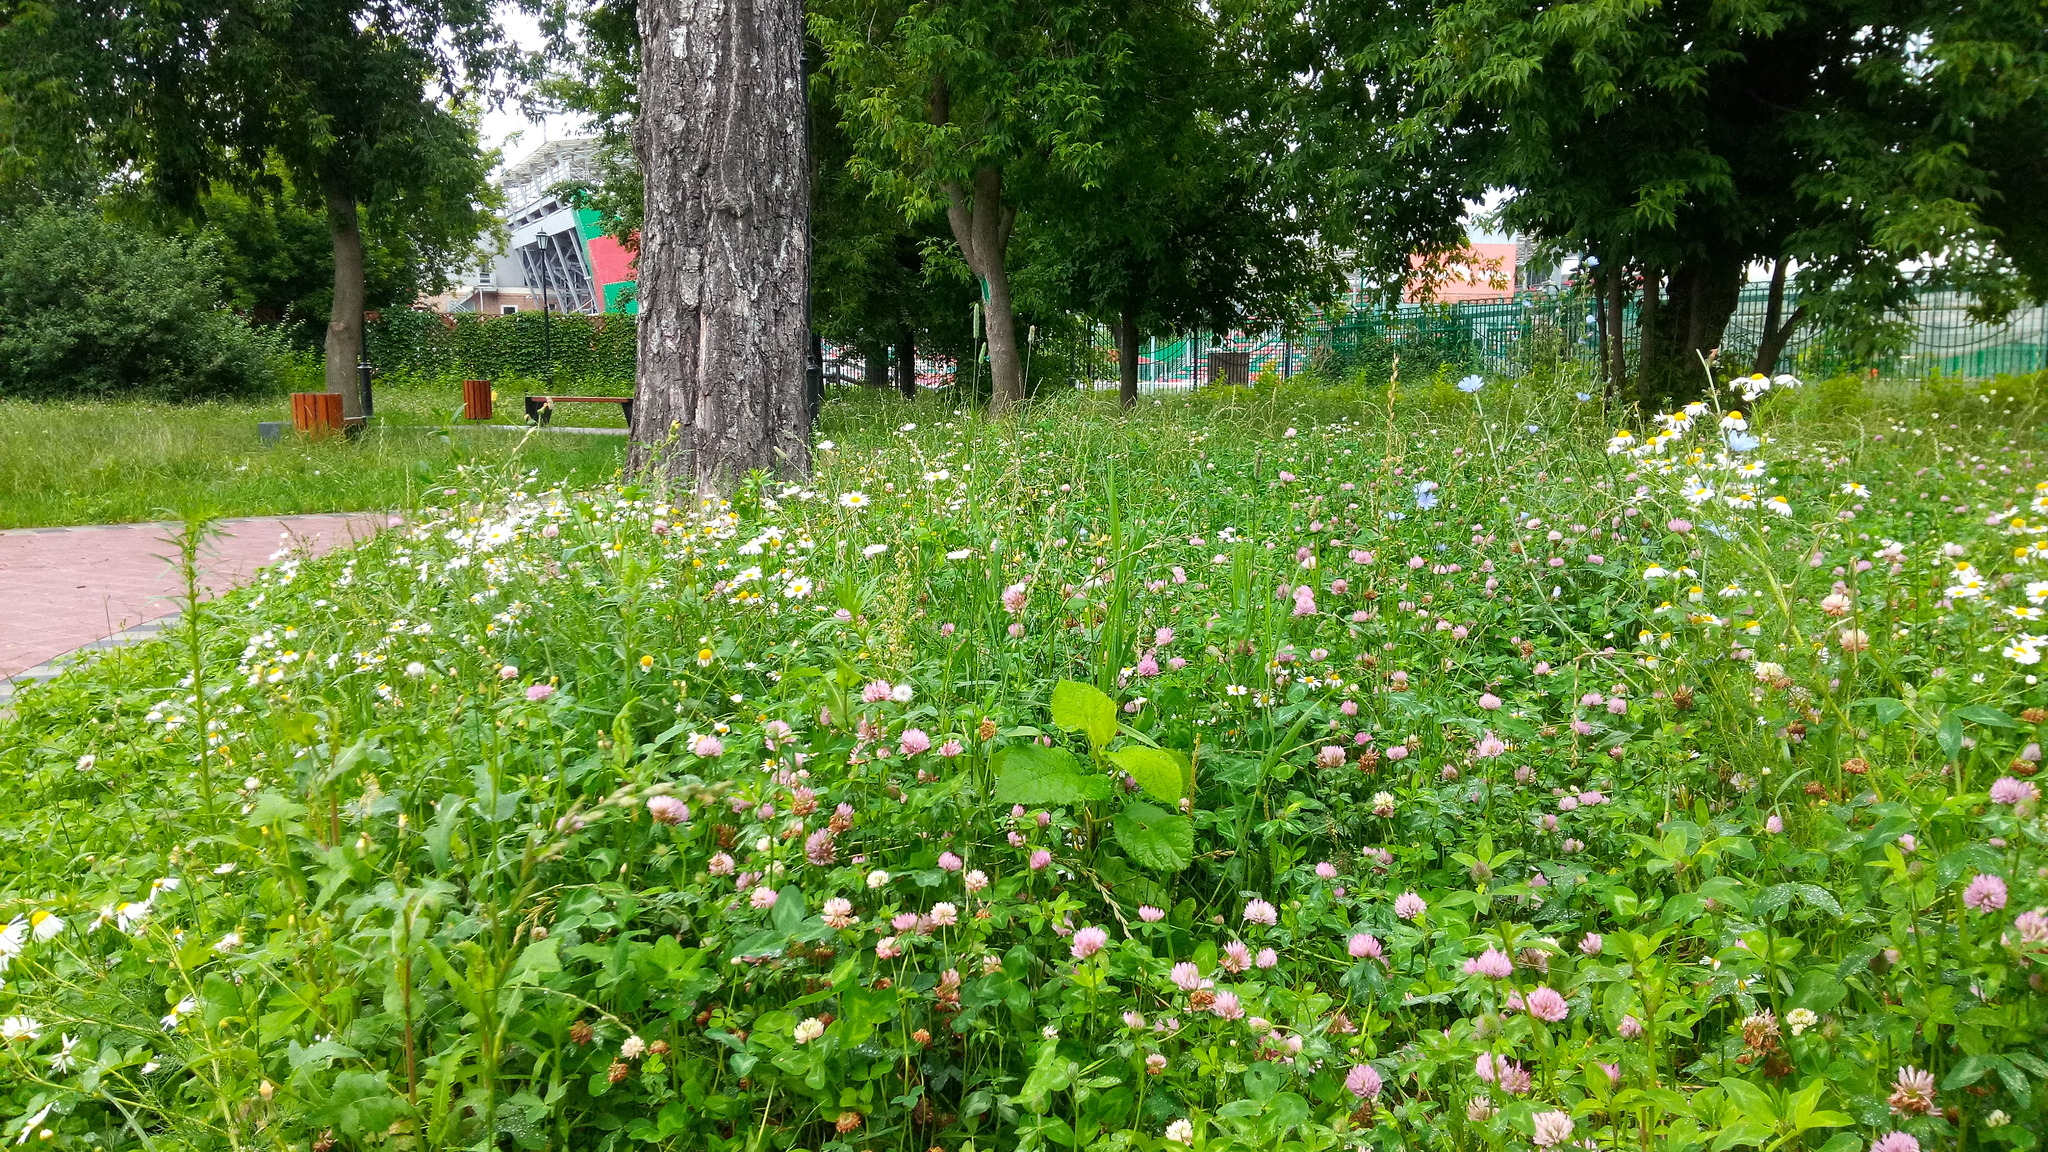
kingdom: Plantae
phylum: Tracheophyta
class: Magnoliopsida
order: Fabales
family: Fabaceae
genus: Trifolium
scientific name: Trifolium pratense
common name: Red clover
